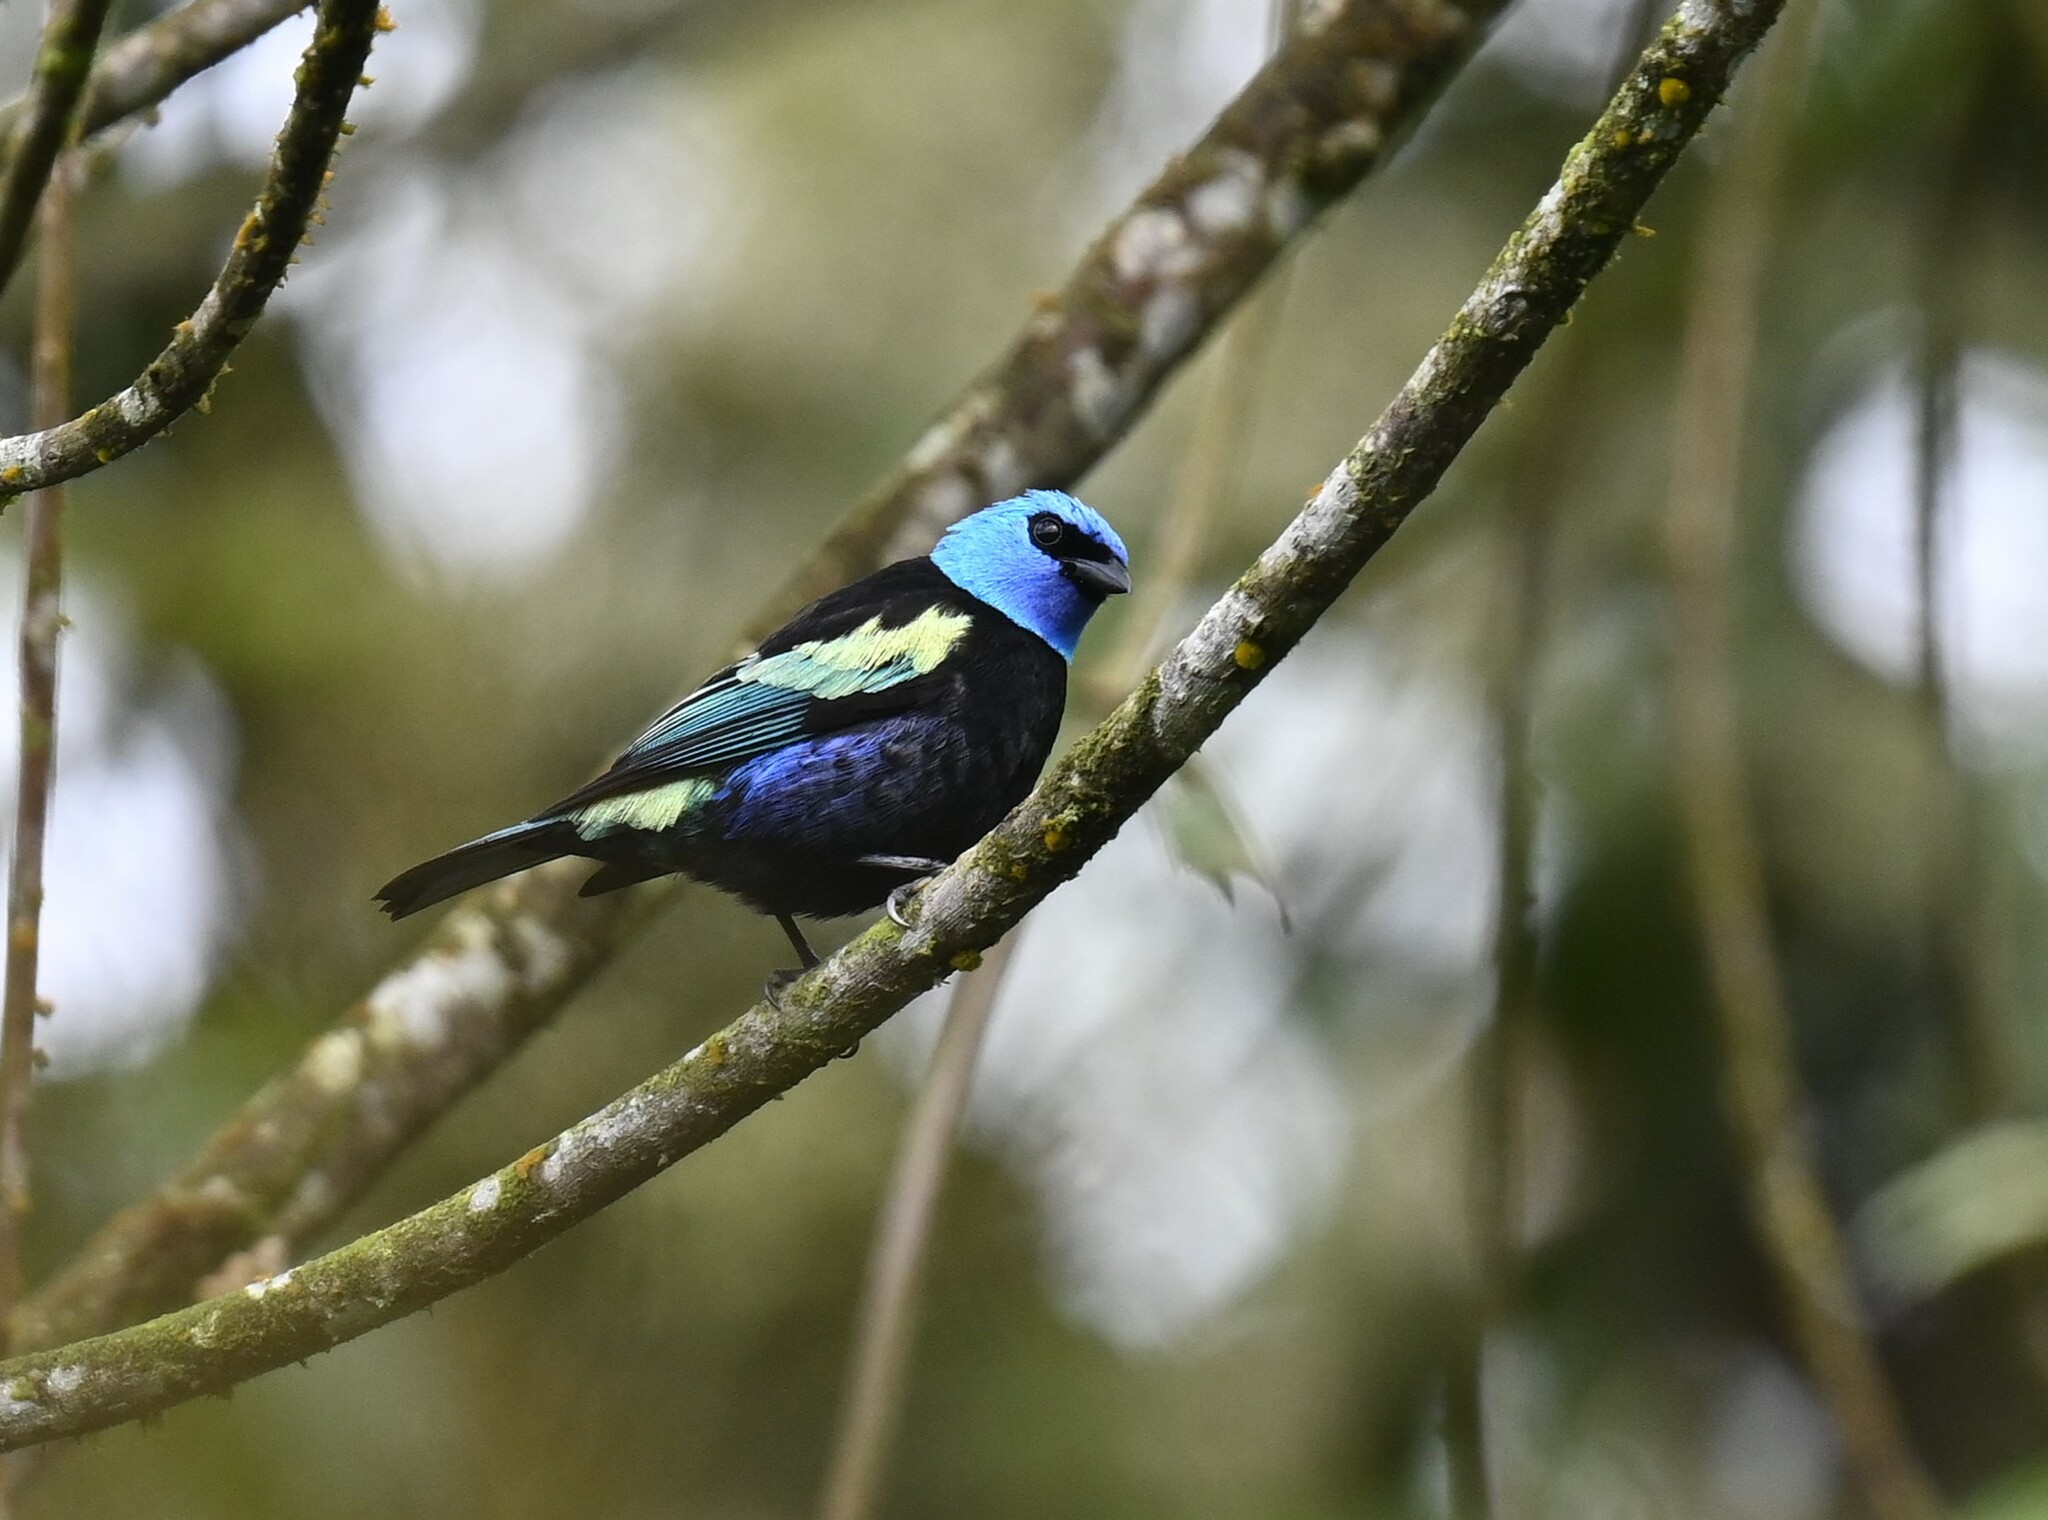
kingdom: Animalia
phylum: Chordata
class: Aves
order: Passeriformes
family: Thraupidae
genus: Stilpnia
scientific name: Stilpnia cyanicollis
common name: Blue-necked tanager
